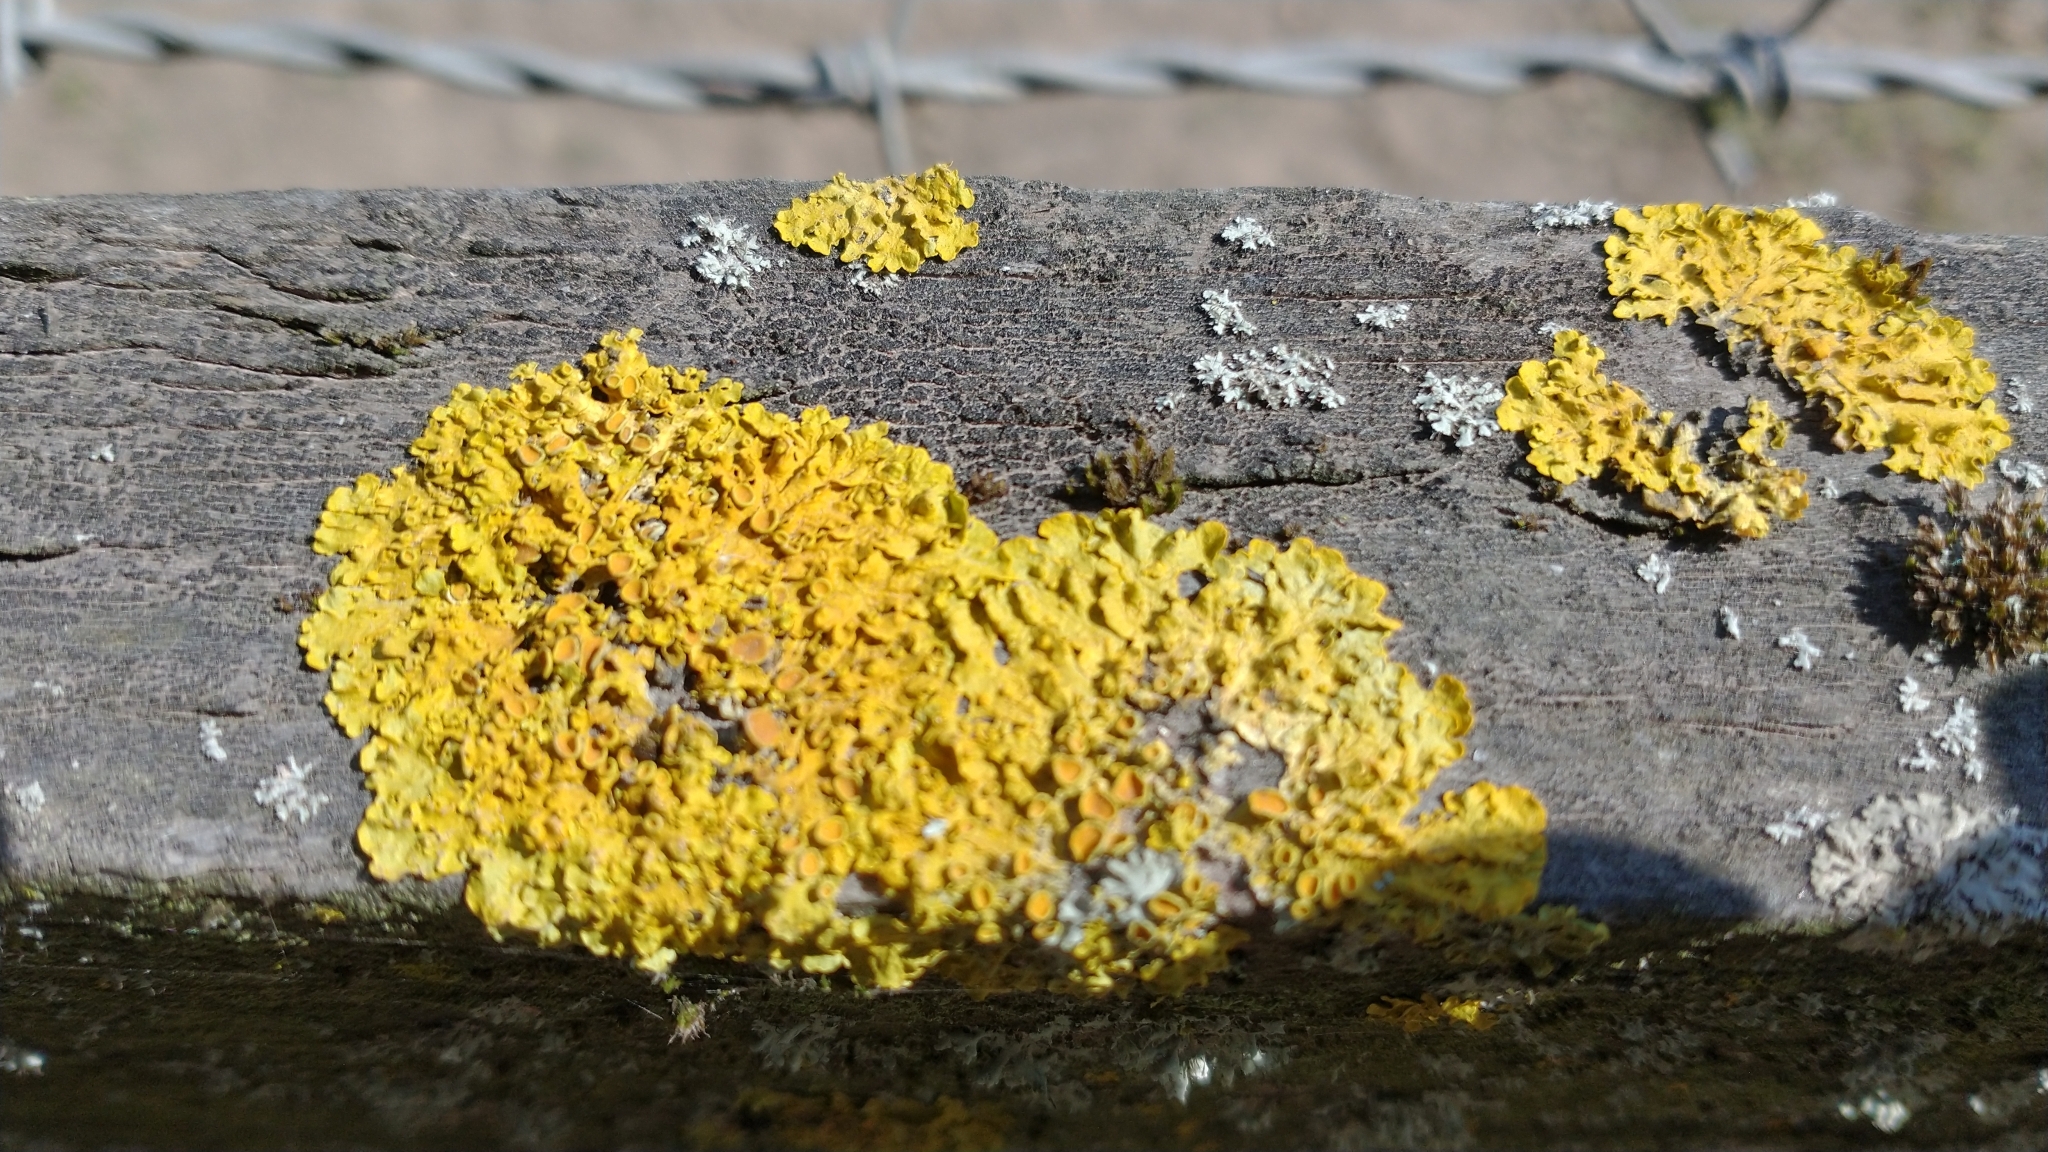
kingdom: Fungi
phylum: Ascomycota
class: Lecanoromycetes
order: Teloschistales
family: Teloschistaceae
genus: Xanthoria
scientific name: Xanthoria parietina
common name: Common orange lichen
